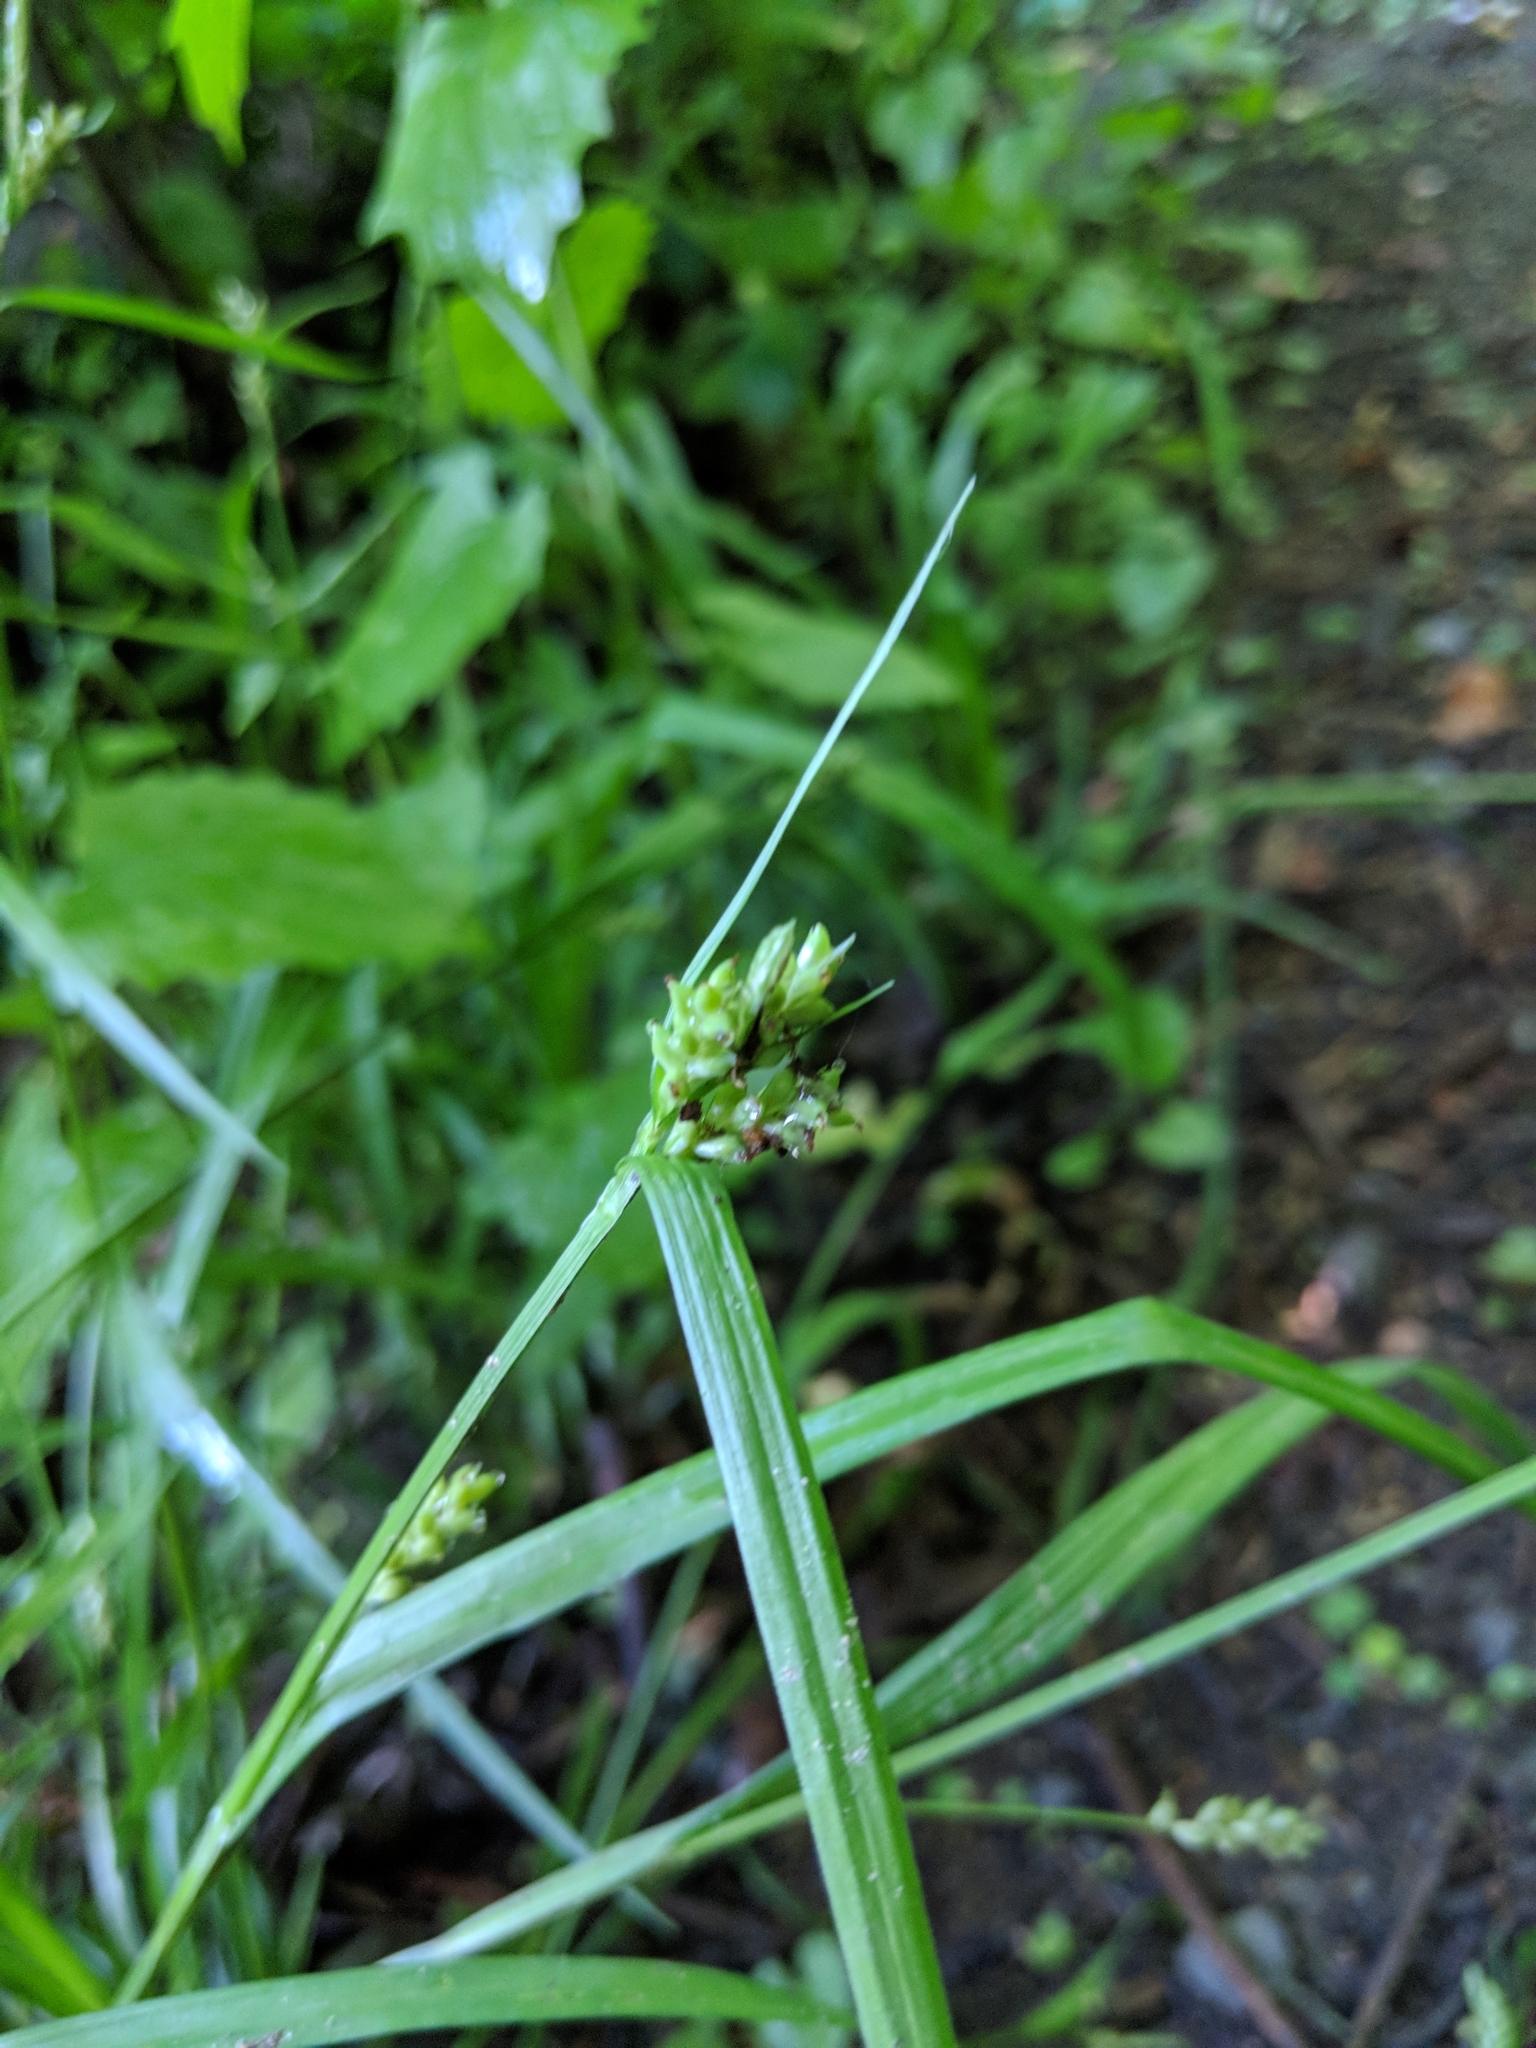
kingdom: Plantae
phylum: Tracheophyta
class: Liliopsida
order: Poales
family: Cyperaceae
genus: Carex
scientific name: Carex blanda
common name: Bland sedge
